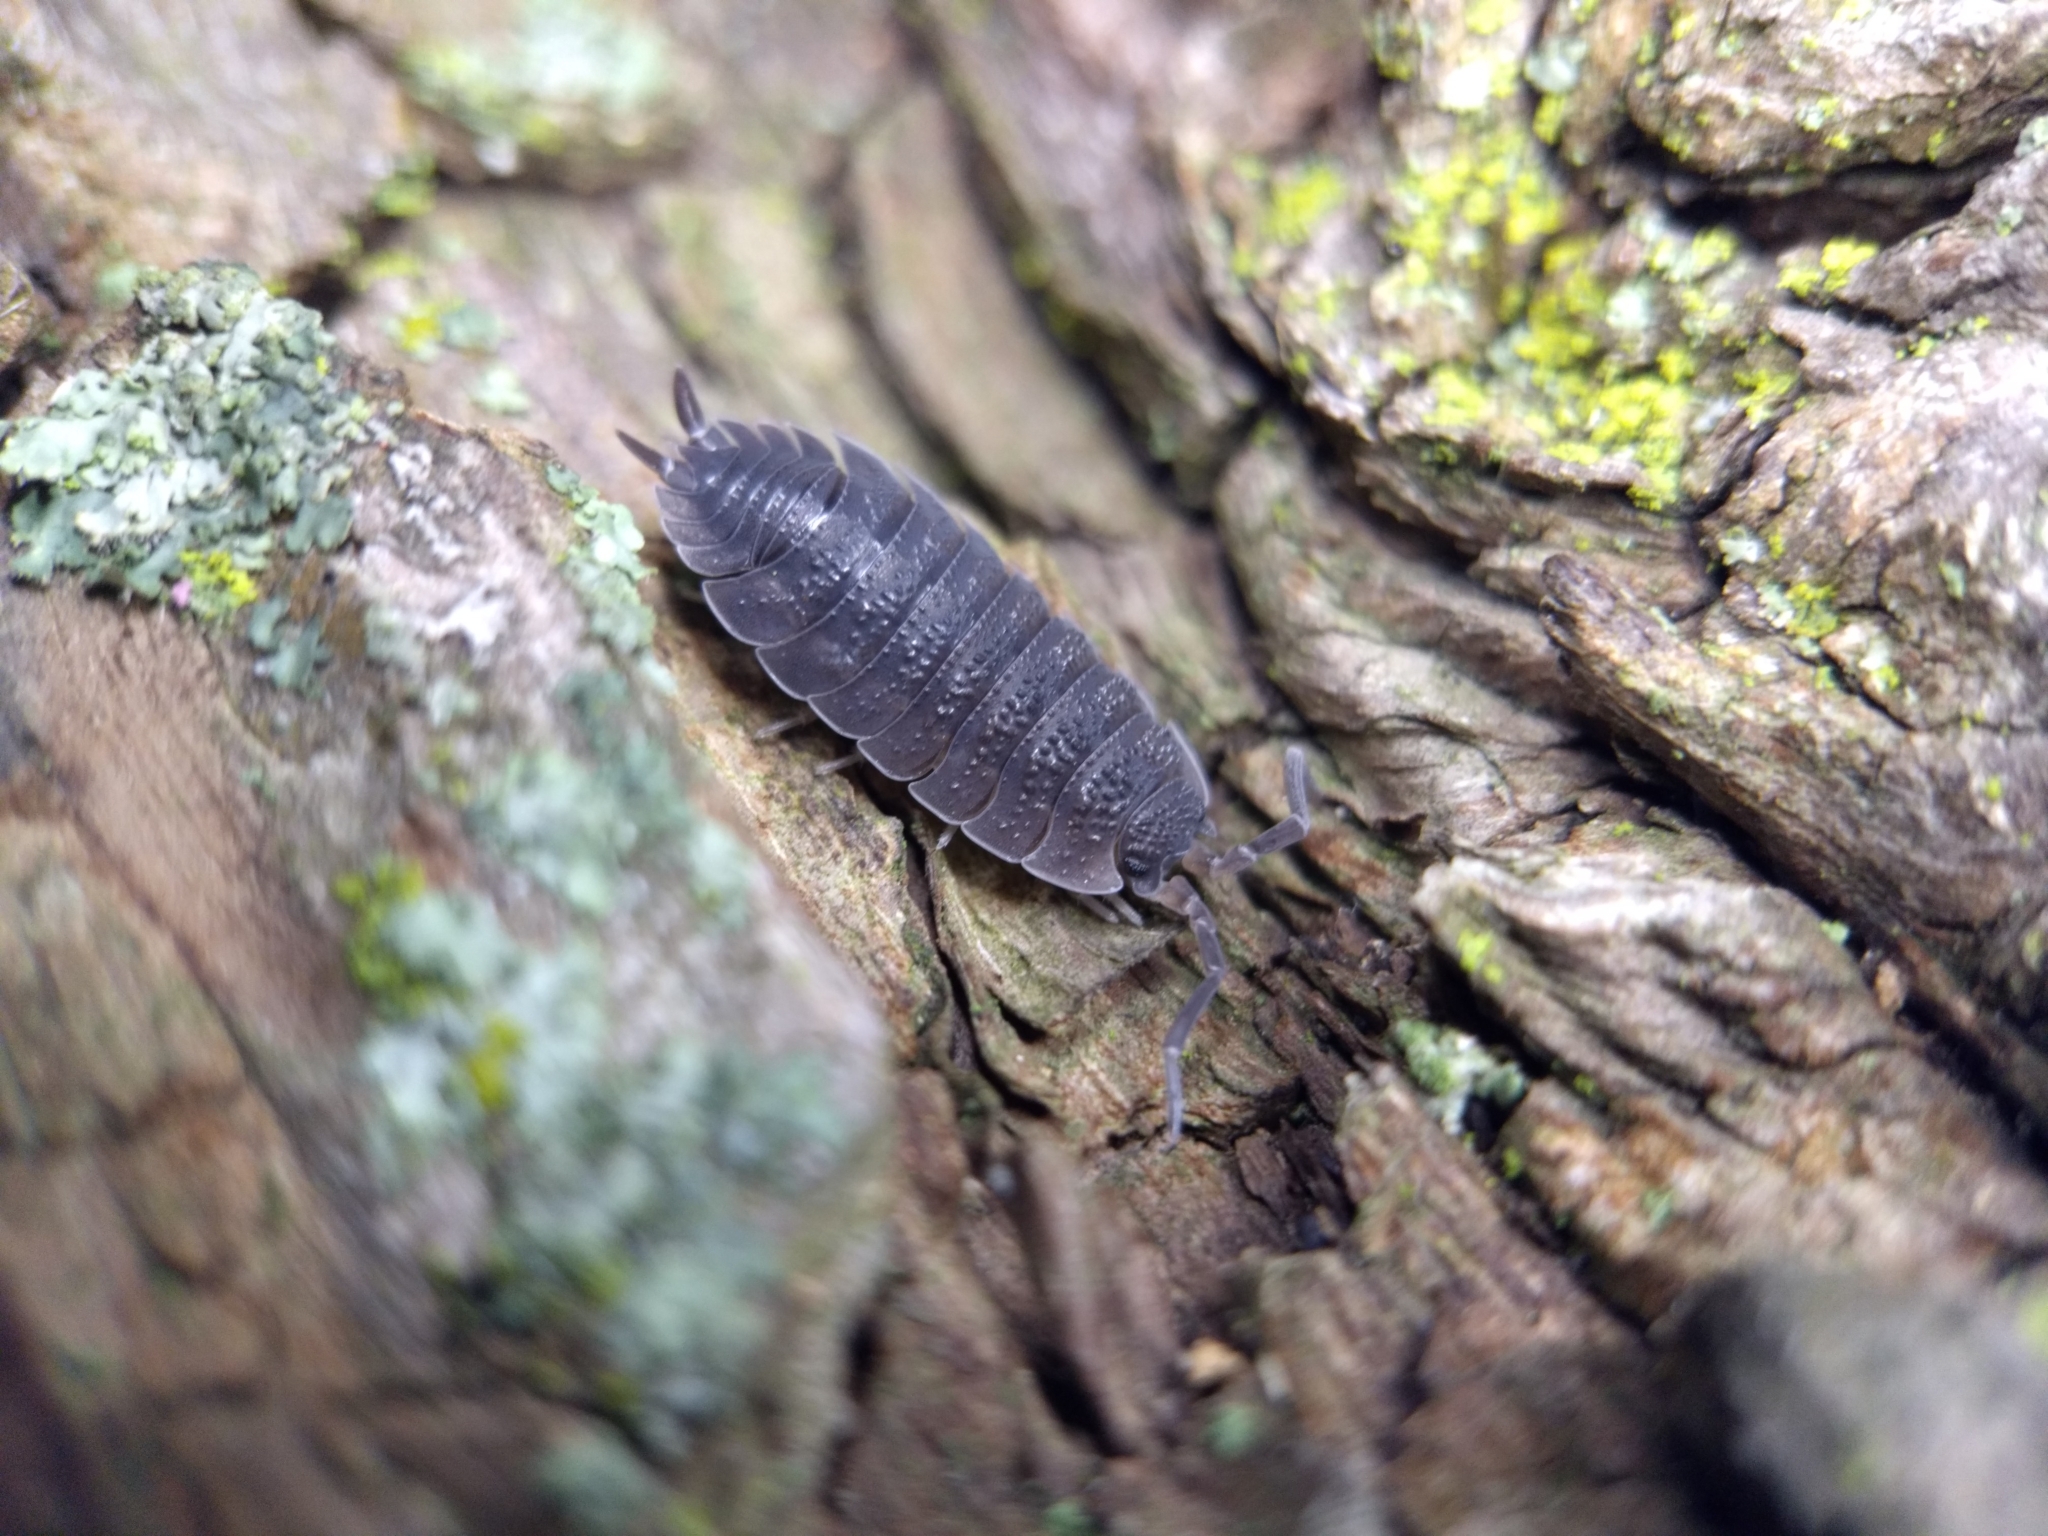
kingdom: Animalia
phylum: Arthropoda
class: Malacostraca
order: Isopoda
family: Porcellionidae
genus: Porcellio
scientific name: Porcellio scaber
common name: Common rough woodlouse
